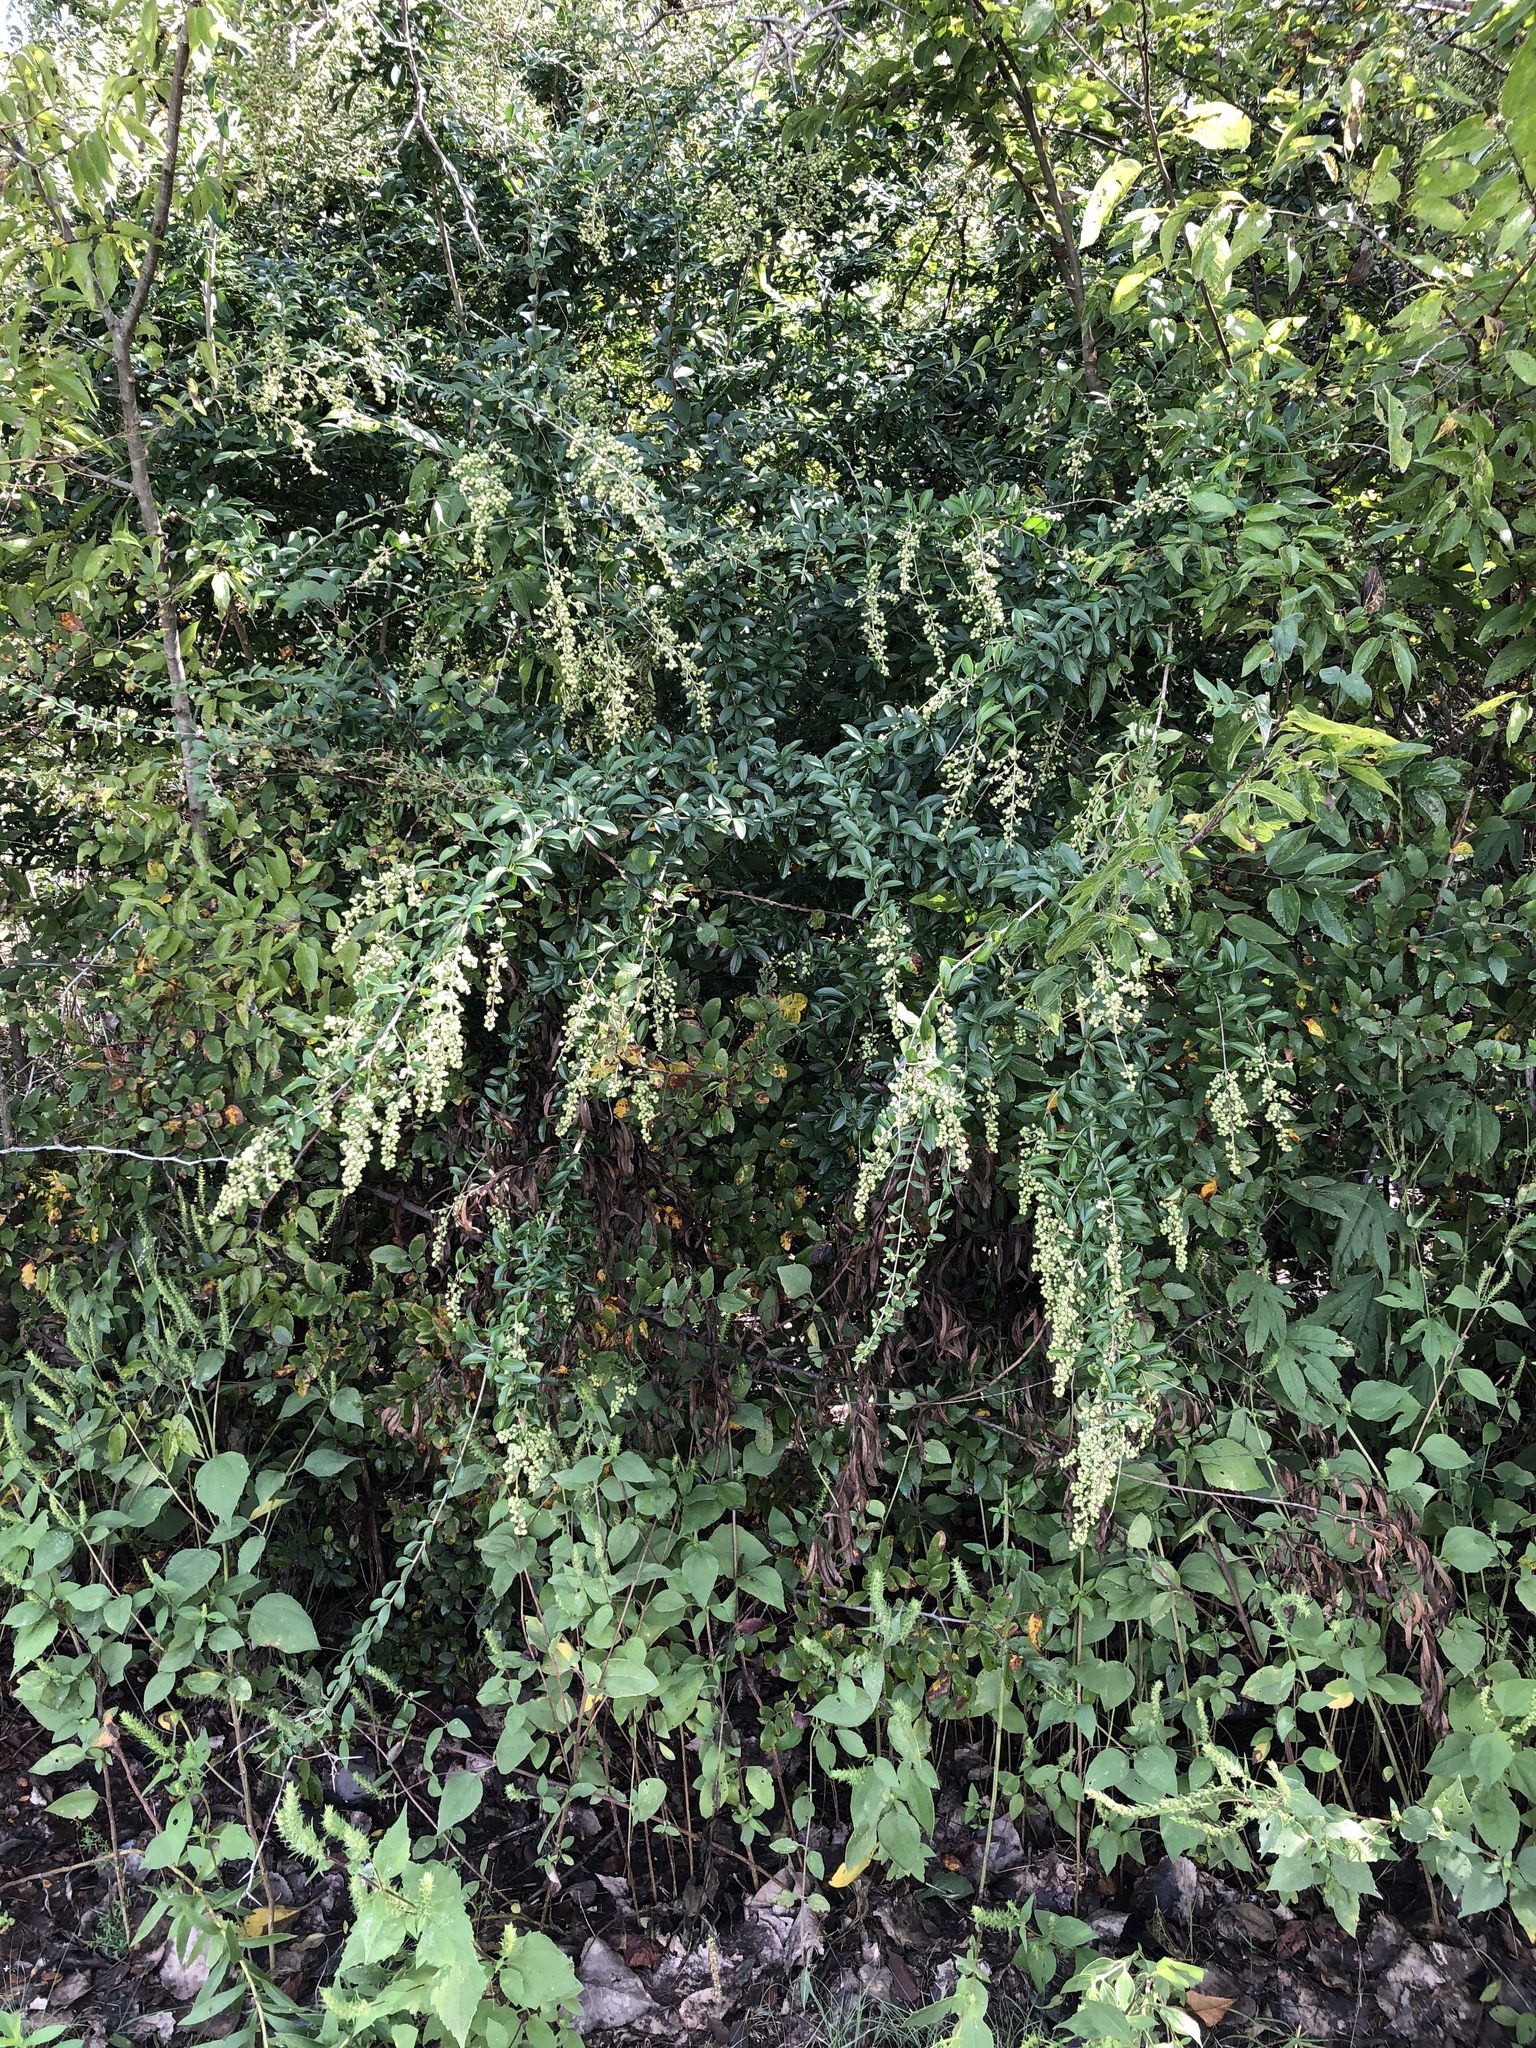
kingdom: Plantae
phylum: Tracheophyta
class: Magnoliopsida
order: Lamiales
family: Oleaceae
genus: Ligustrum
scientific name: Ligustrum quihoui
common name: Waxyleaf privet
